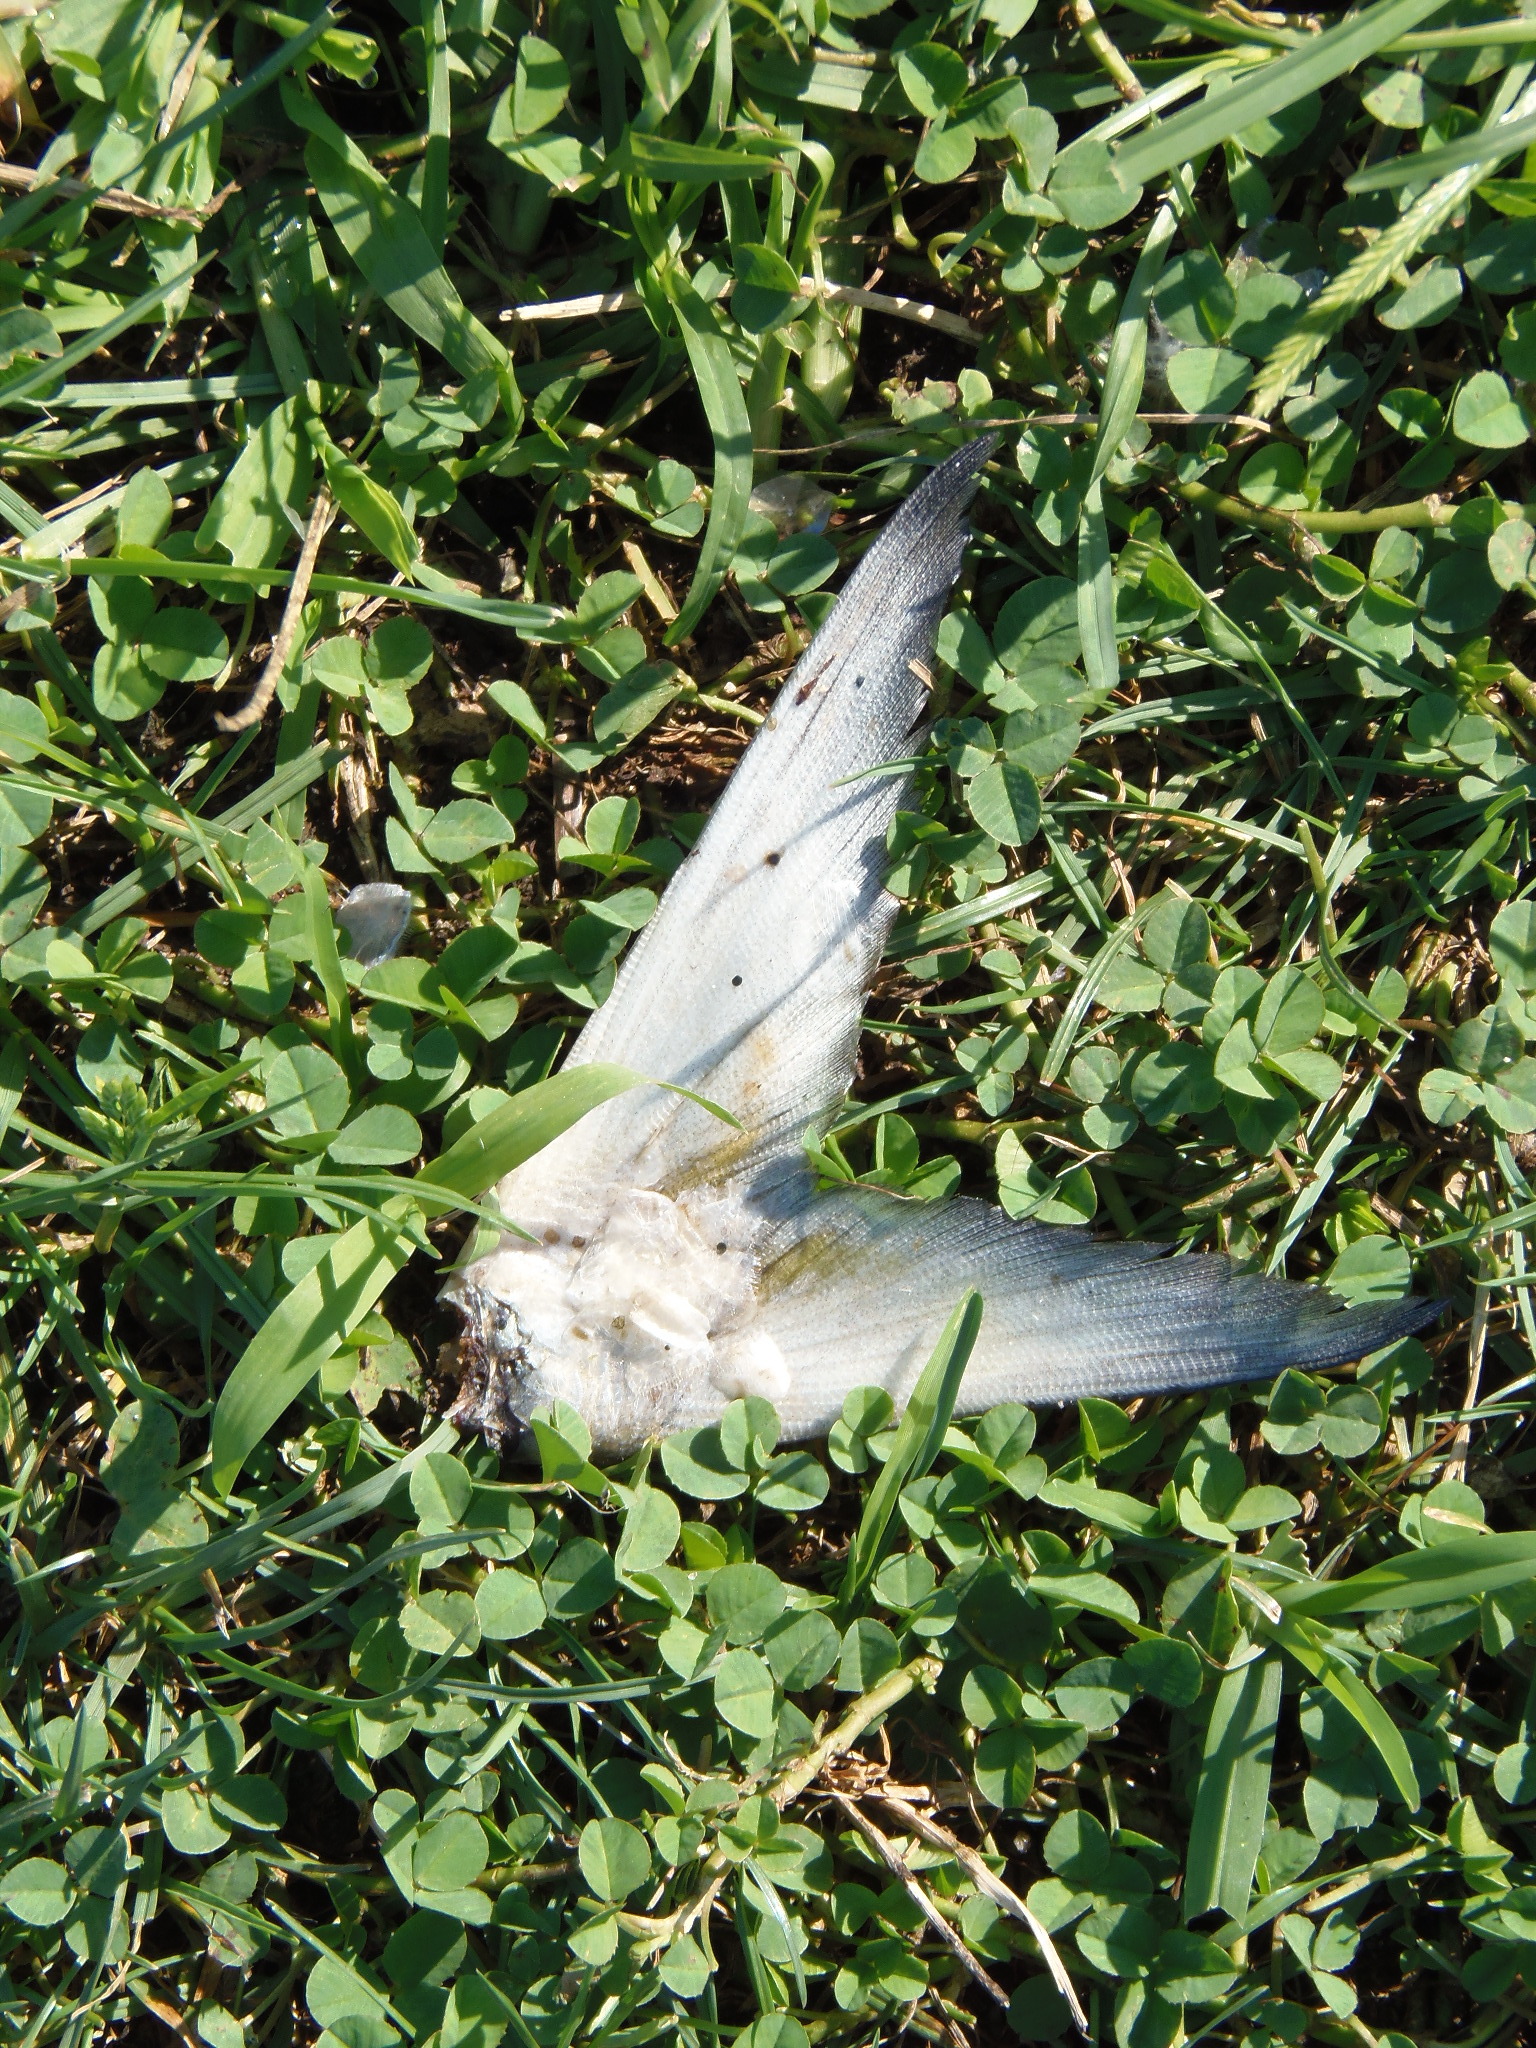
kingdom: Animalia
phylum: Chordata
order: Clupeiformes
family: Clupeidae
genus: Brevoortia
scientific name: Brevoortia tyrannus
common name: Atlantic menhaden
